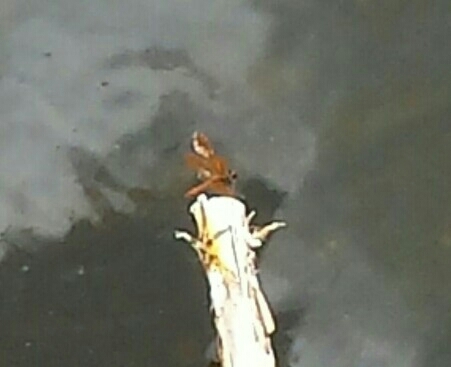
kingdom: Animalia
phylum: Arthropoda
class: Insecta
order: Odonata
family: Libellulidae
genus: Perithemis
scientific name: Perithemis domitia
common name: Slough amberwing
